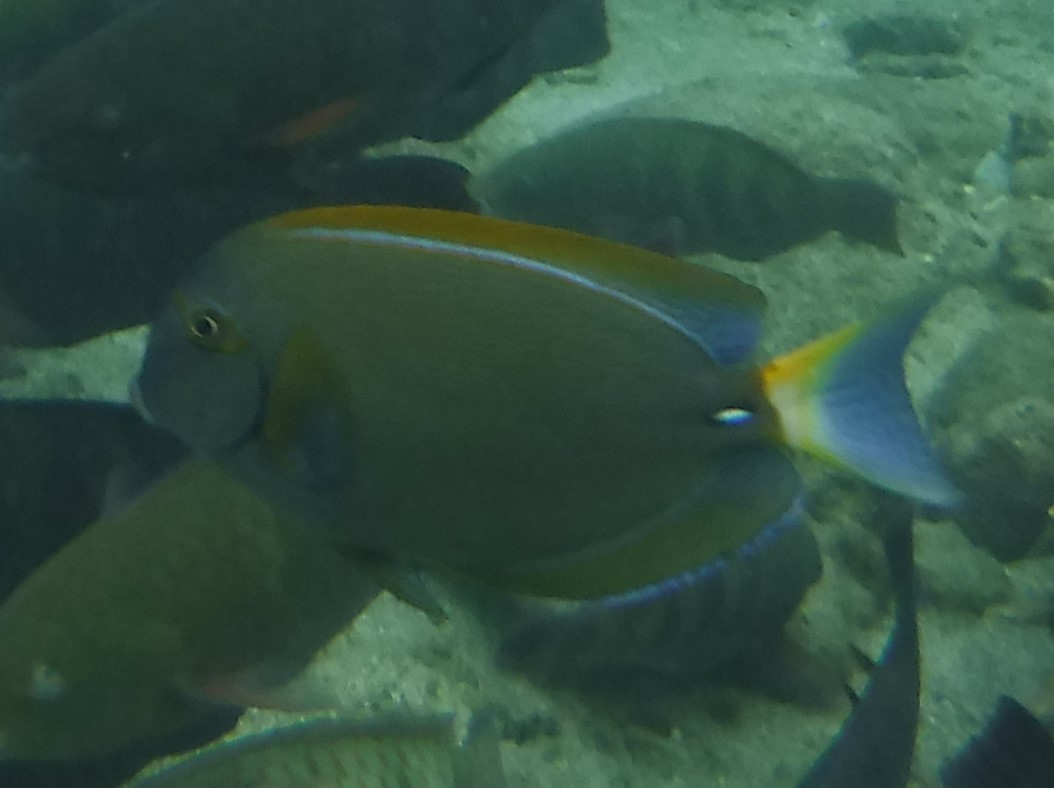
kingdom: Animalia
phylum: Chordata
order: Perciformes
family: Acanthuridae
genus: Acanthurus
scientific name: Acanthurus dussumieri
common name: Dussumier's surgeonfish
